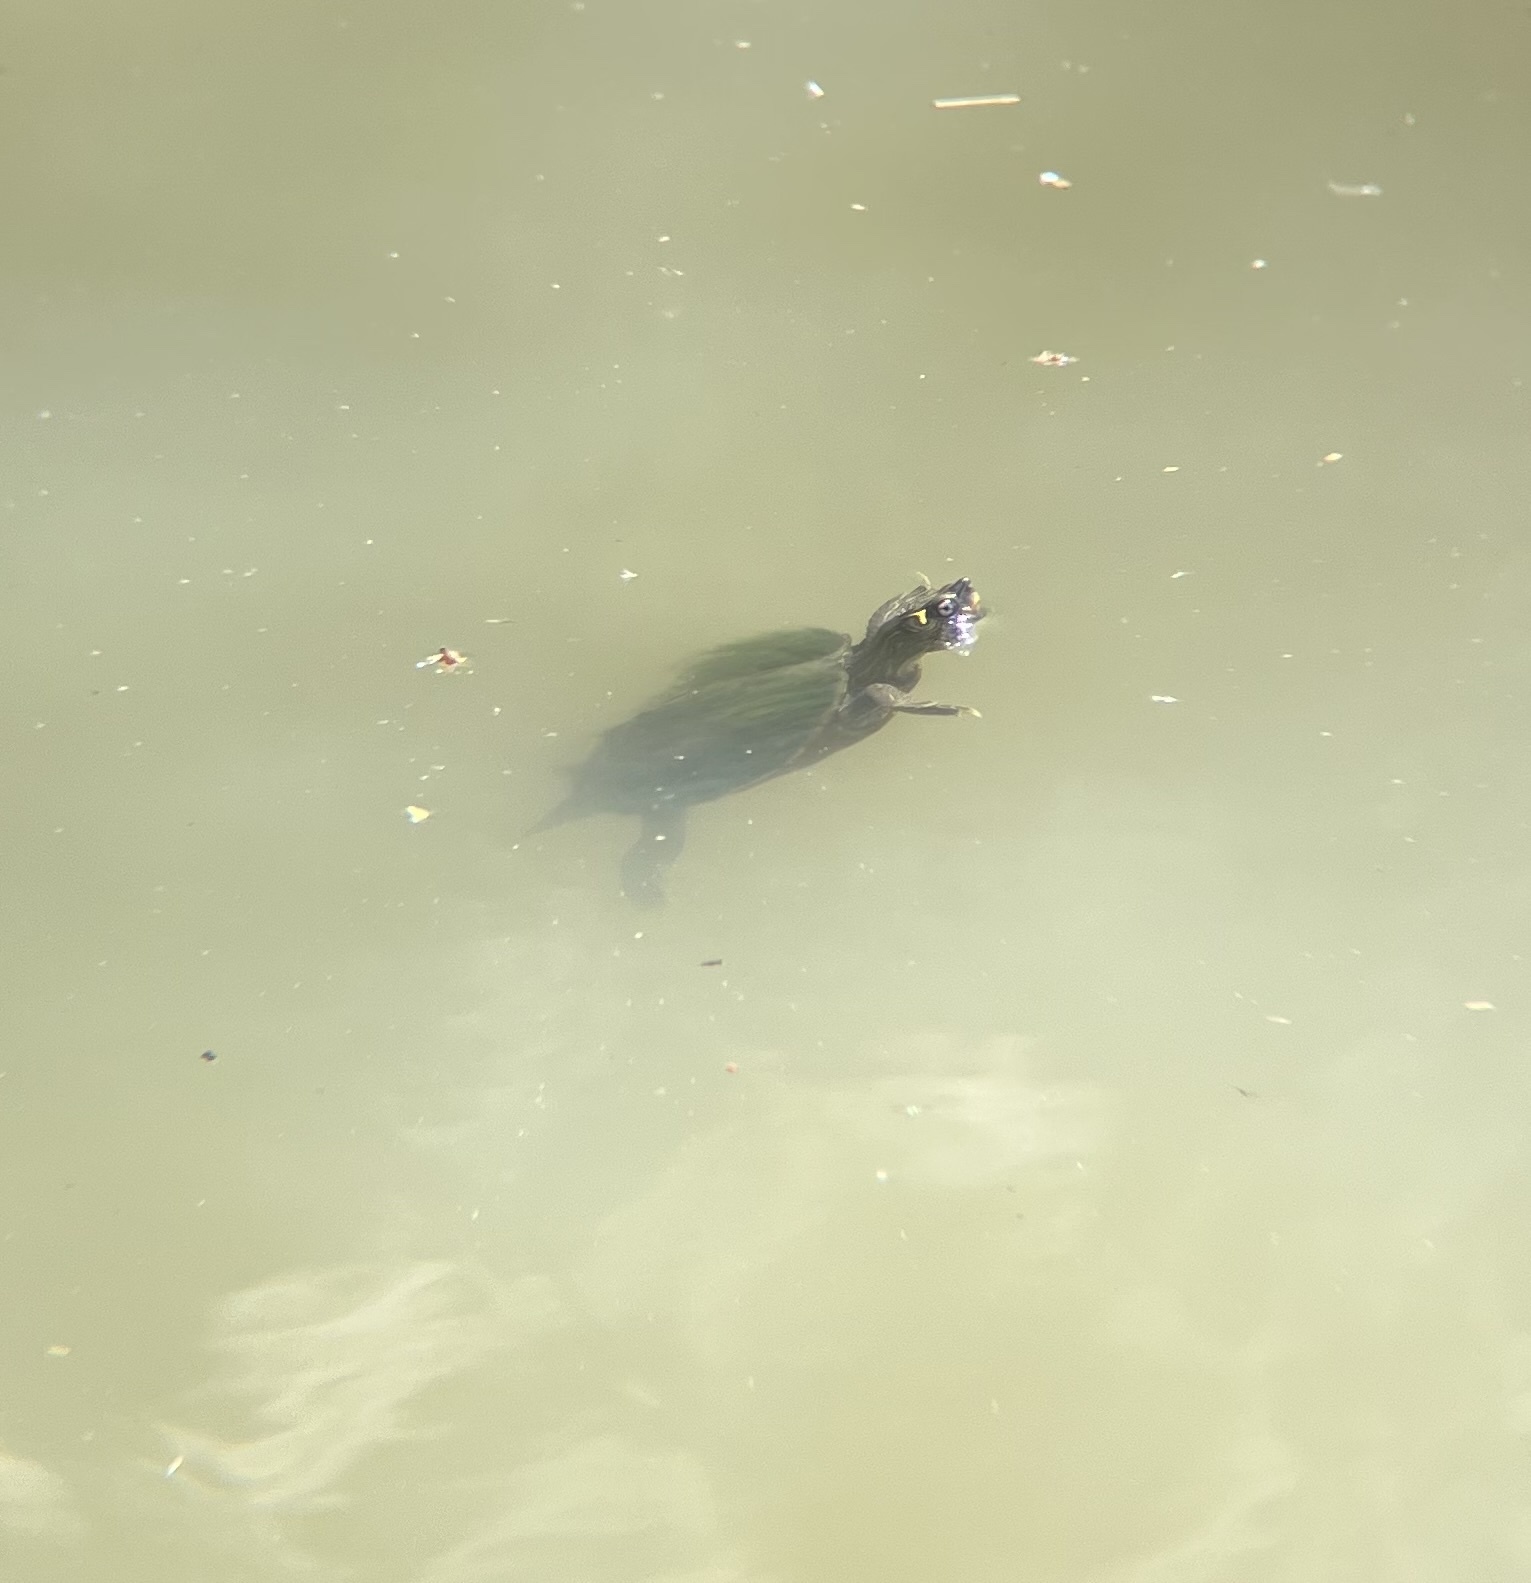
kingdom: Animalia
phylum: Chordata
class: Testudines
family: Emydidae
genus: Graptemys
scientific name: Graptemys pseudogeographica
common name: False map turtle
